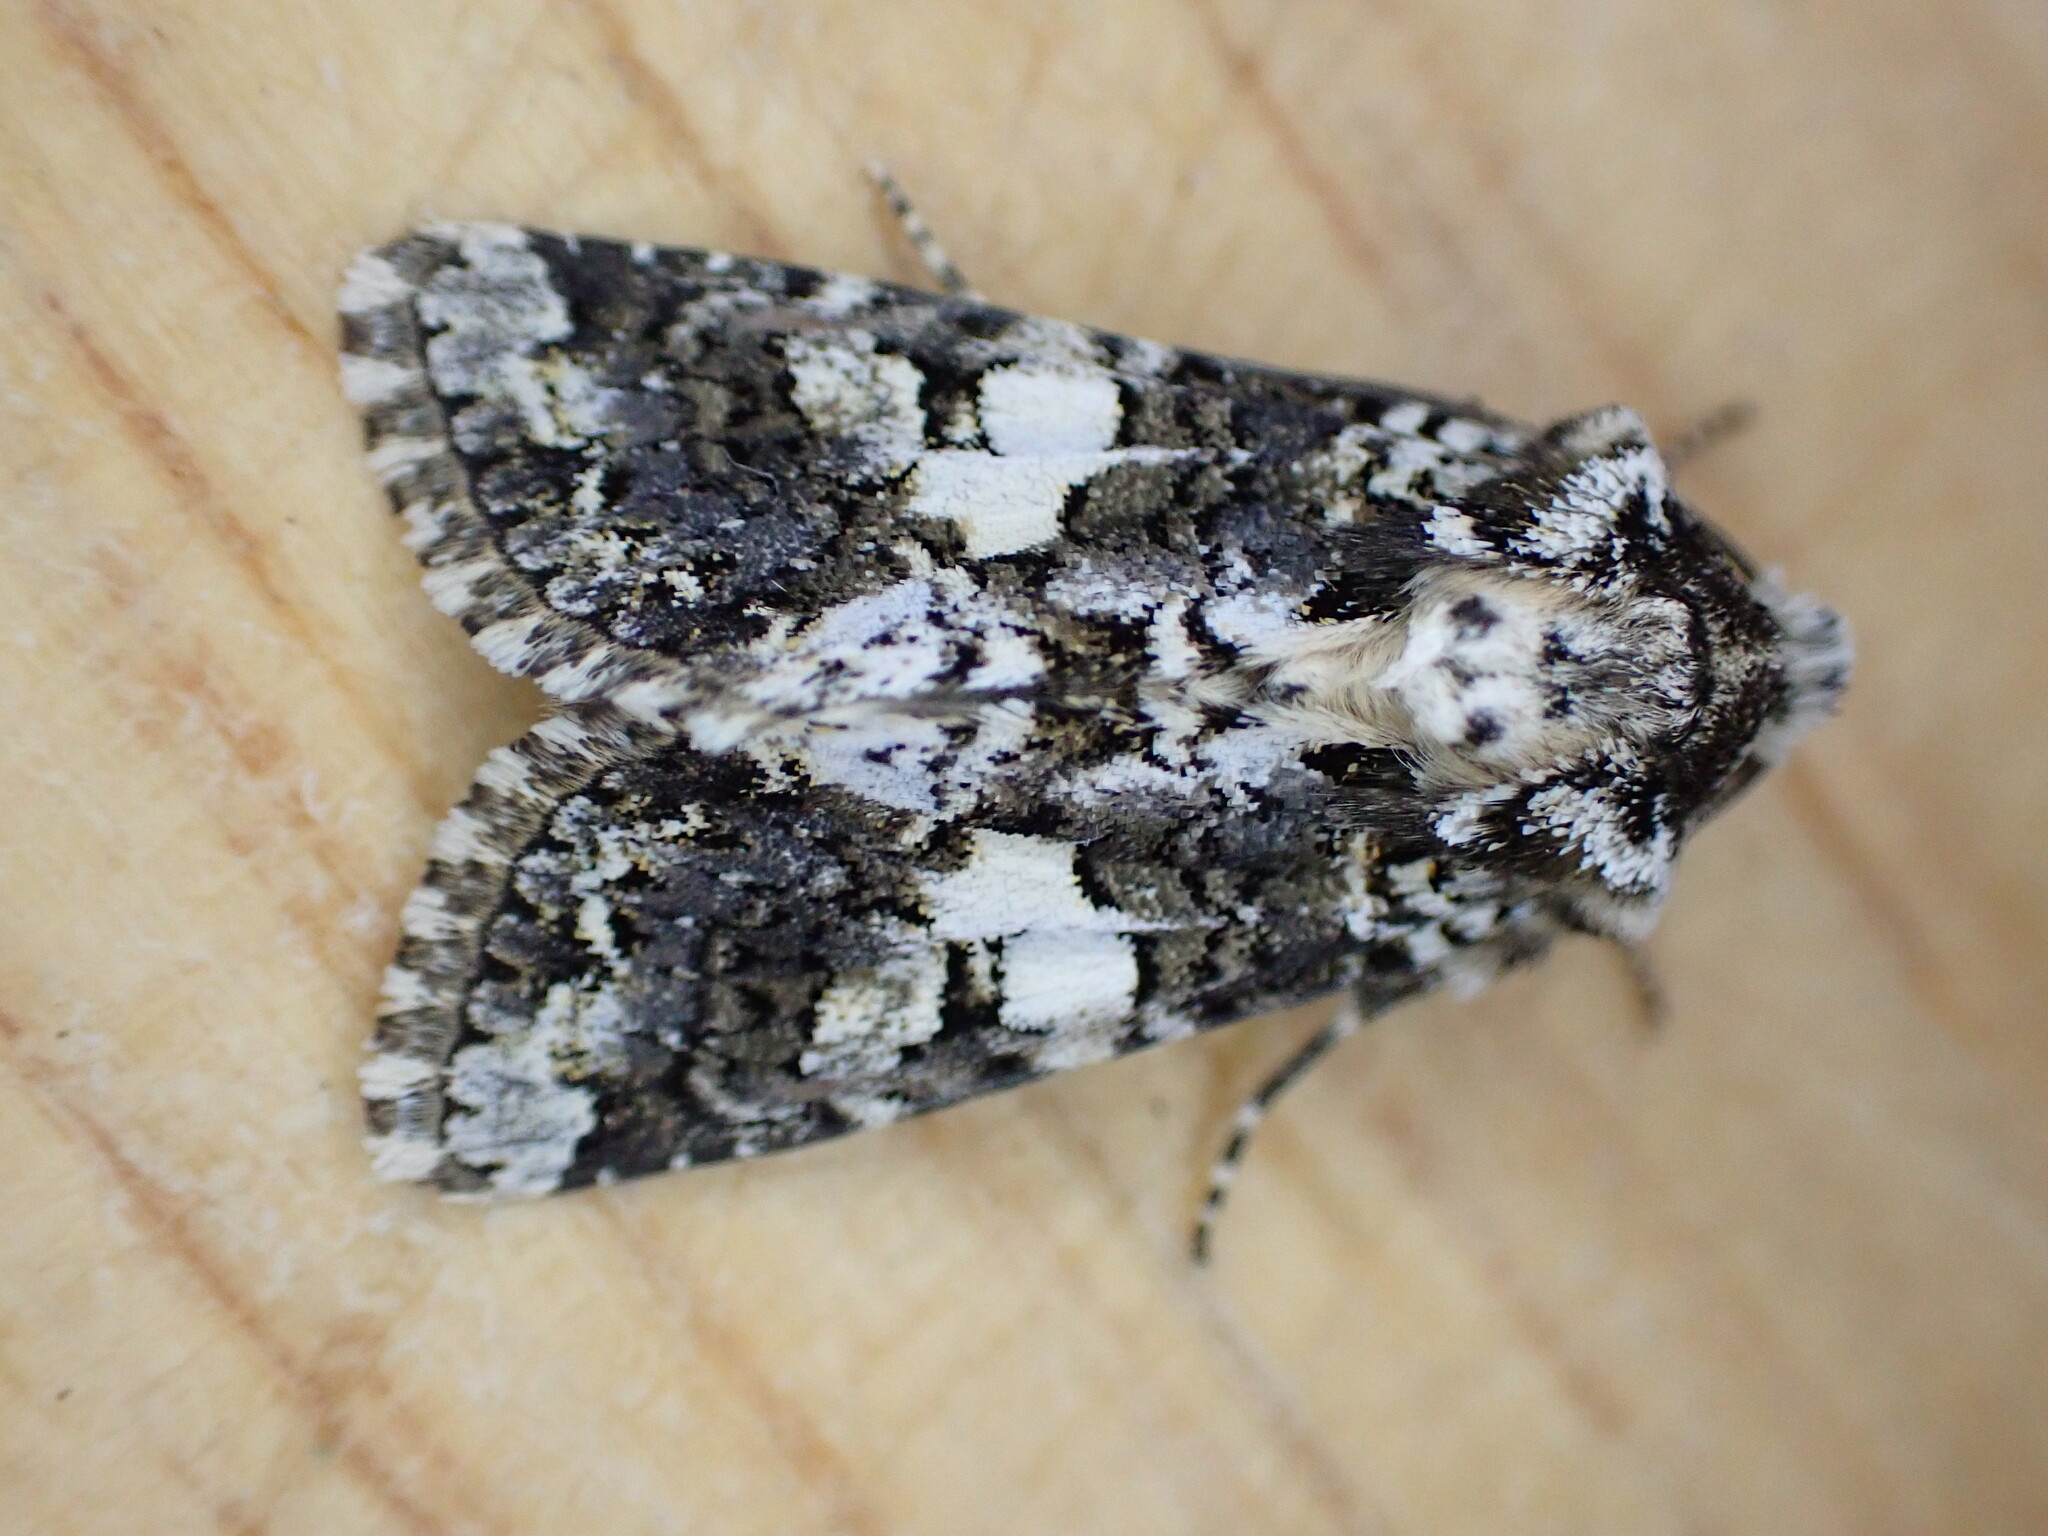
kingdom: Animalia
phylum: Arthropoda
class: Insecta
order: Lepidoptera
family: Noctuidae
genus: Hadena
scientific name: Hadena confusa
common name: Marbled coronet
